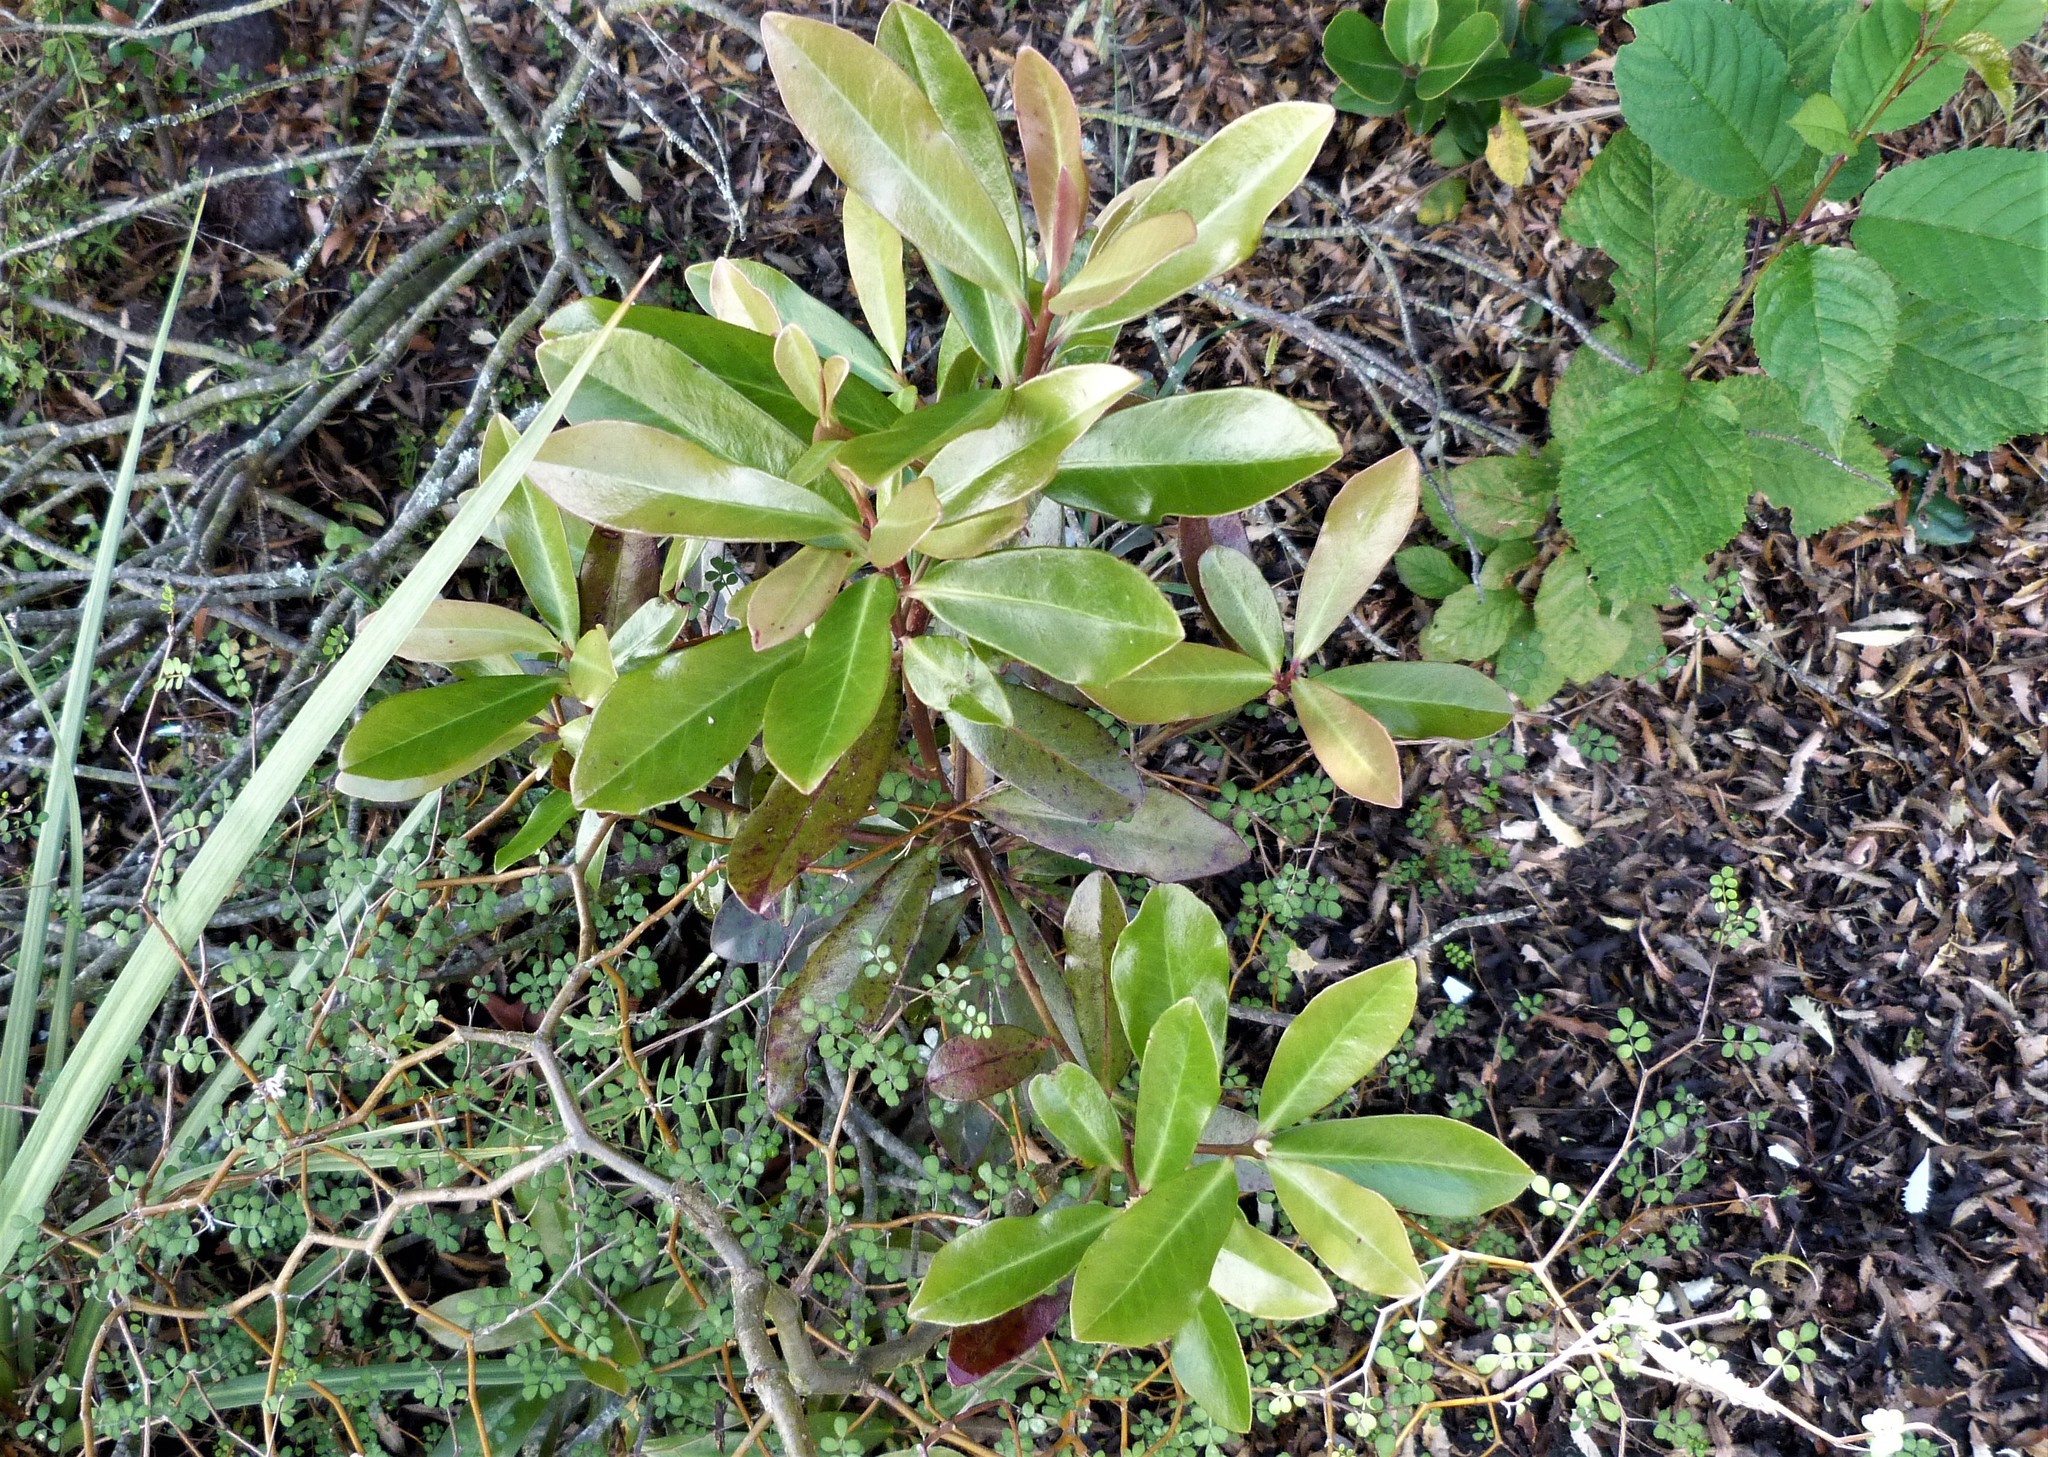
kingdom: Plantae
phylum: Tracheophyta
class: Magnoliopsida
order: Ericales
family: Primulaceae
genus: Myrsine
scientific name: Myrsine salicina
